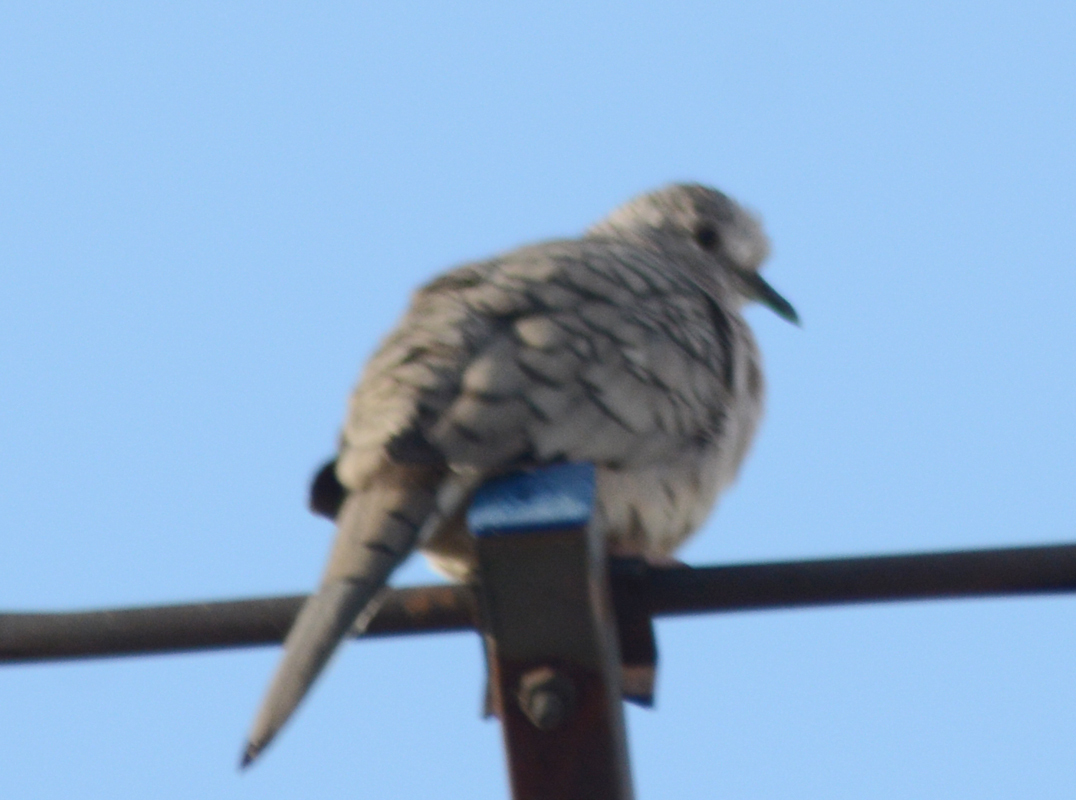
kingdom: Animalia
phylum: Chordata
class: Aves
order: Columbiformes
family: Columbidae
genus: Columbina
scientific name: Columbina inca
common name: Inca dove
